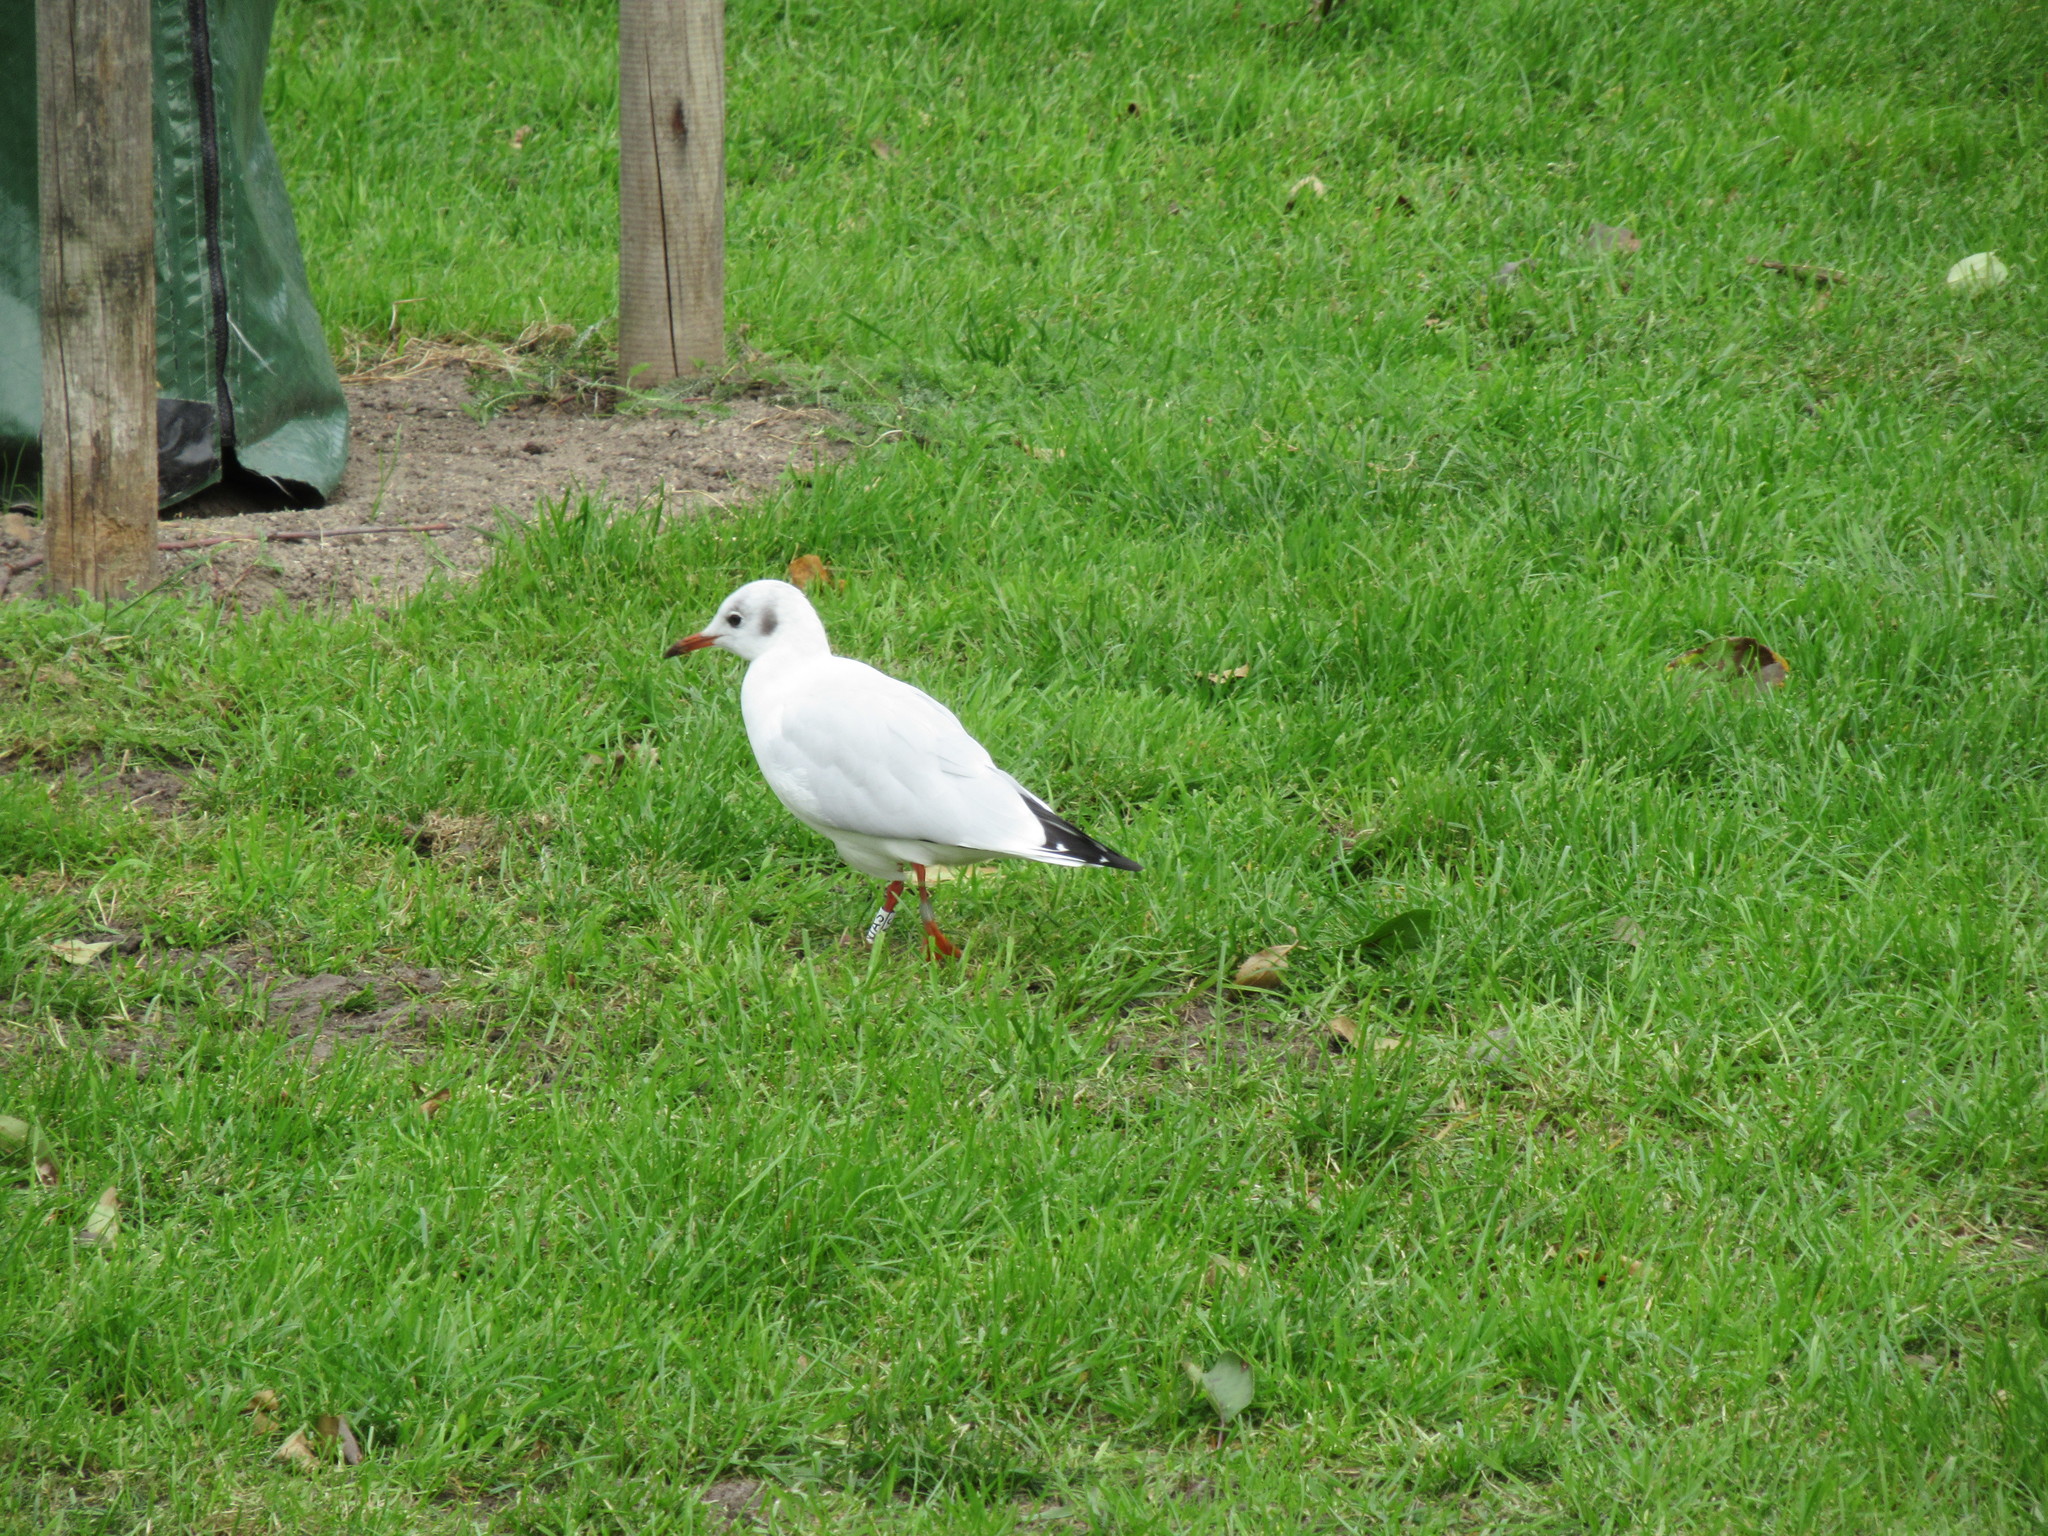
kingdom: Animalia
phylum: Chordata
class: Aves
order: Charadriiformes
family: Laridae
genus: Chroicocephalus
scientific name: Chroicocephalus ridibundus
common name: Black-headed gull
